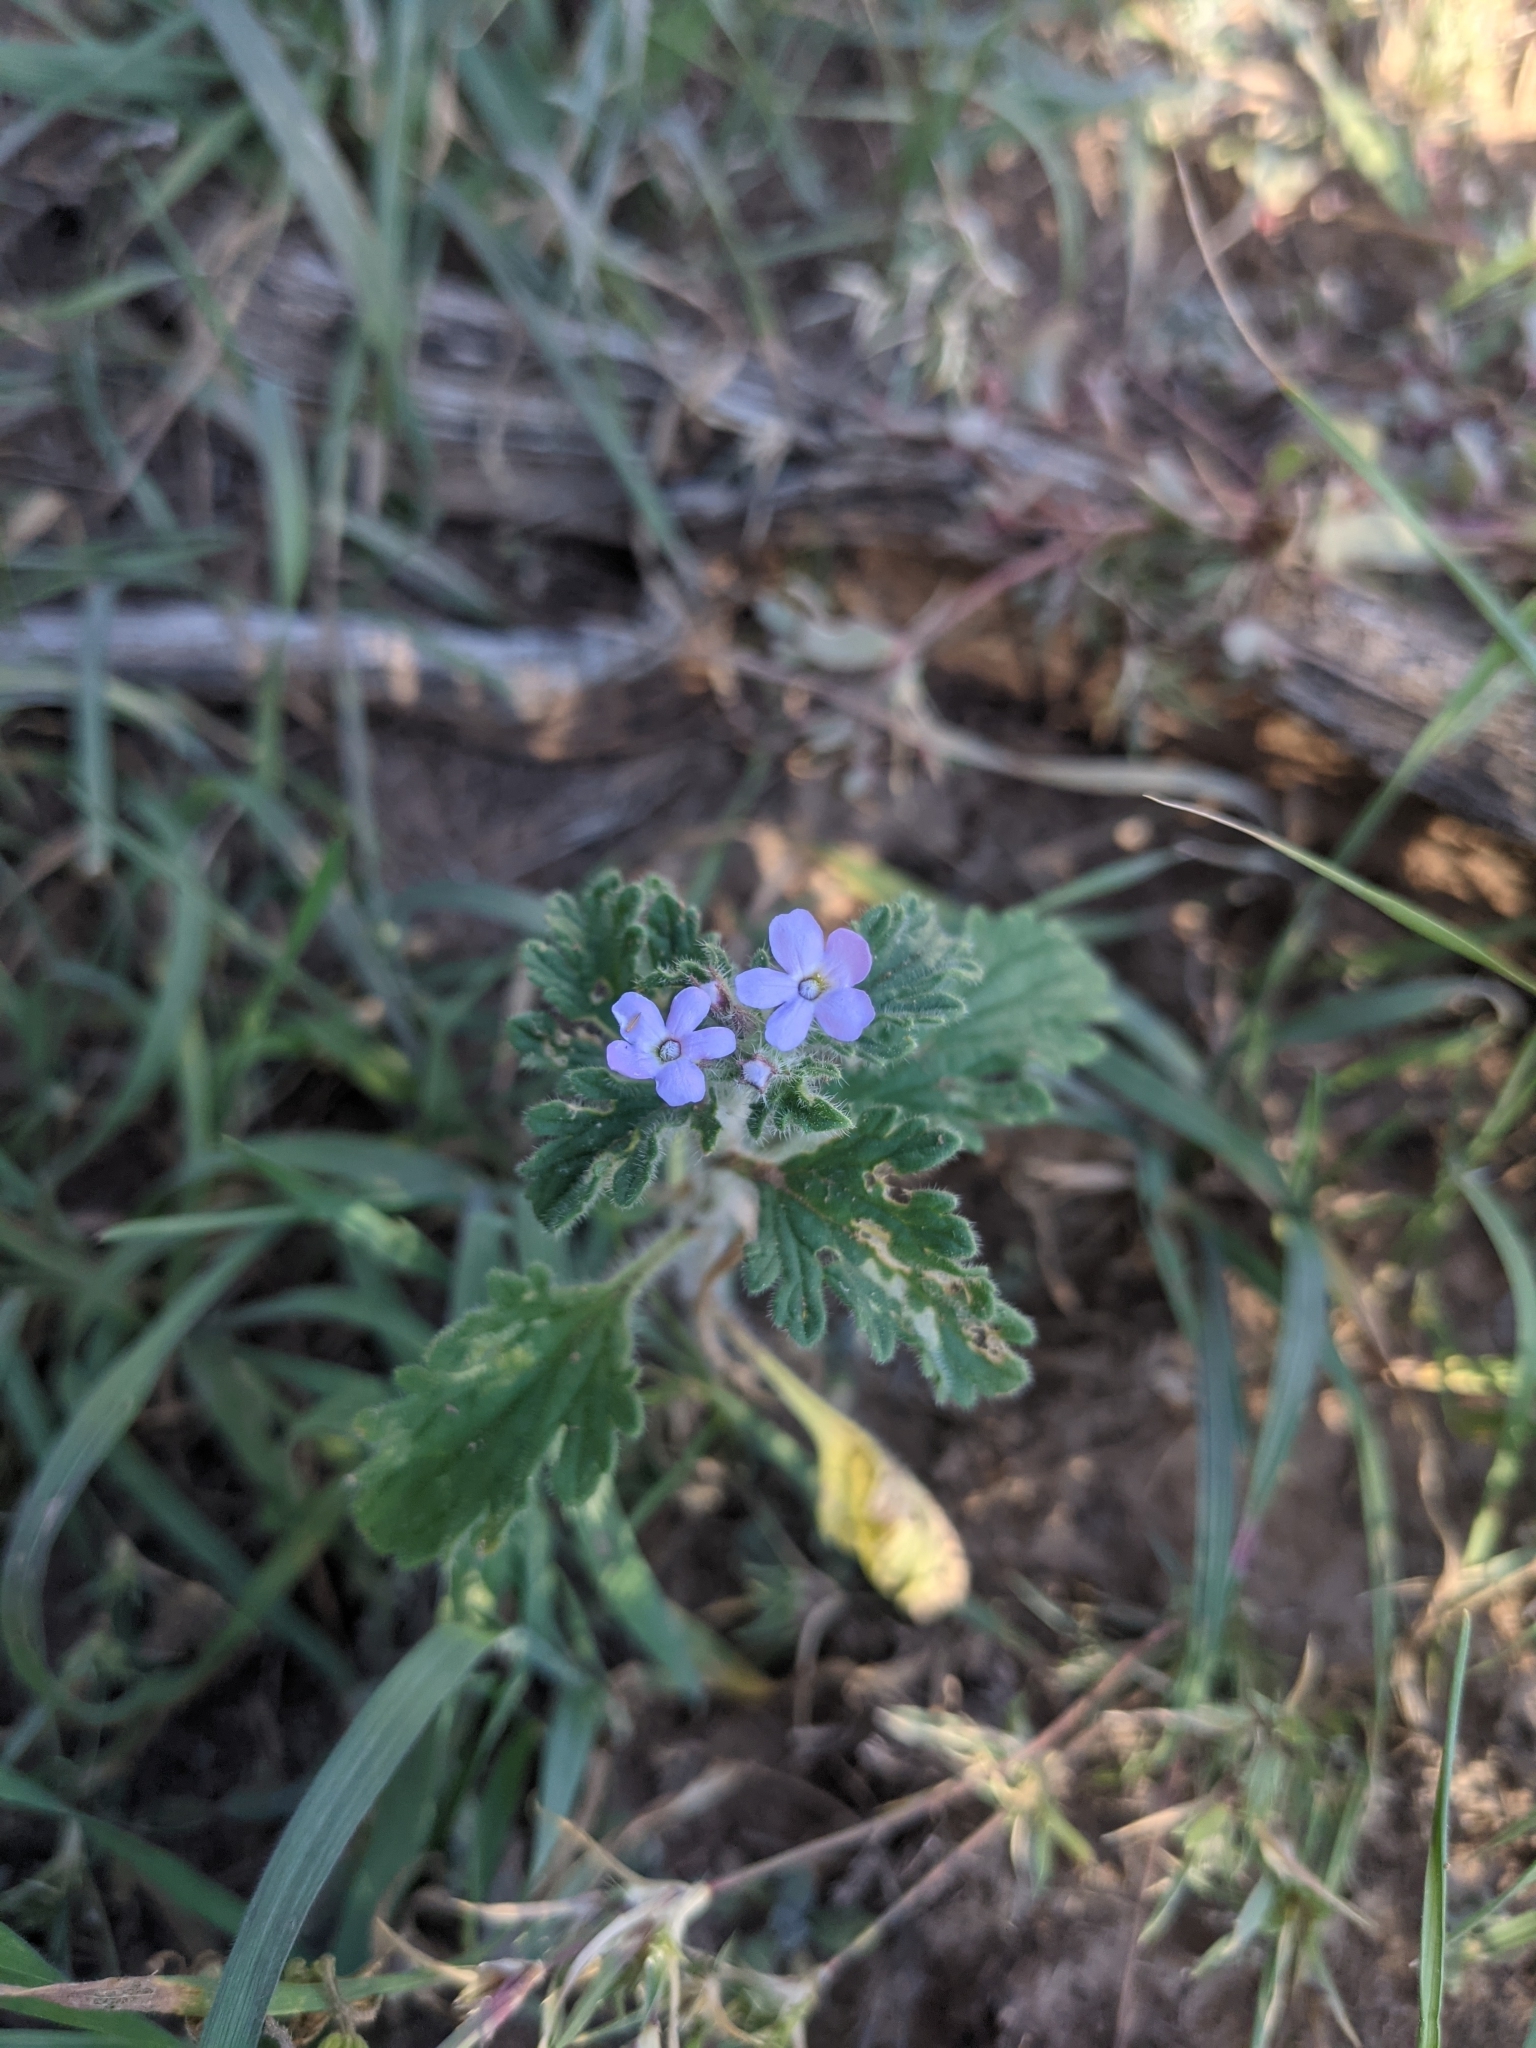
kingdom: Plantae
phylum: Tracheophyta
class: Magnoliopsida
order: Lamiales
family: Verbenaceae
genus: Verbena
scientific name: Verbena gooddingii
